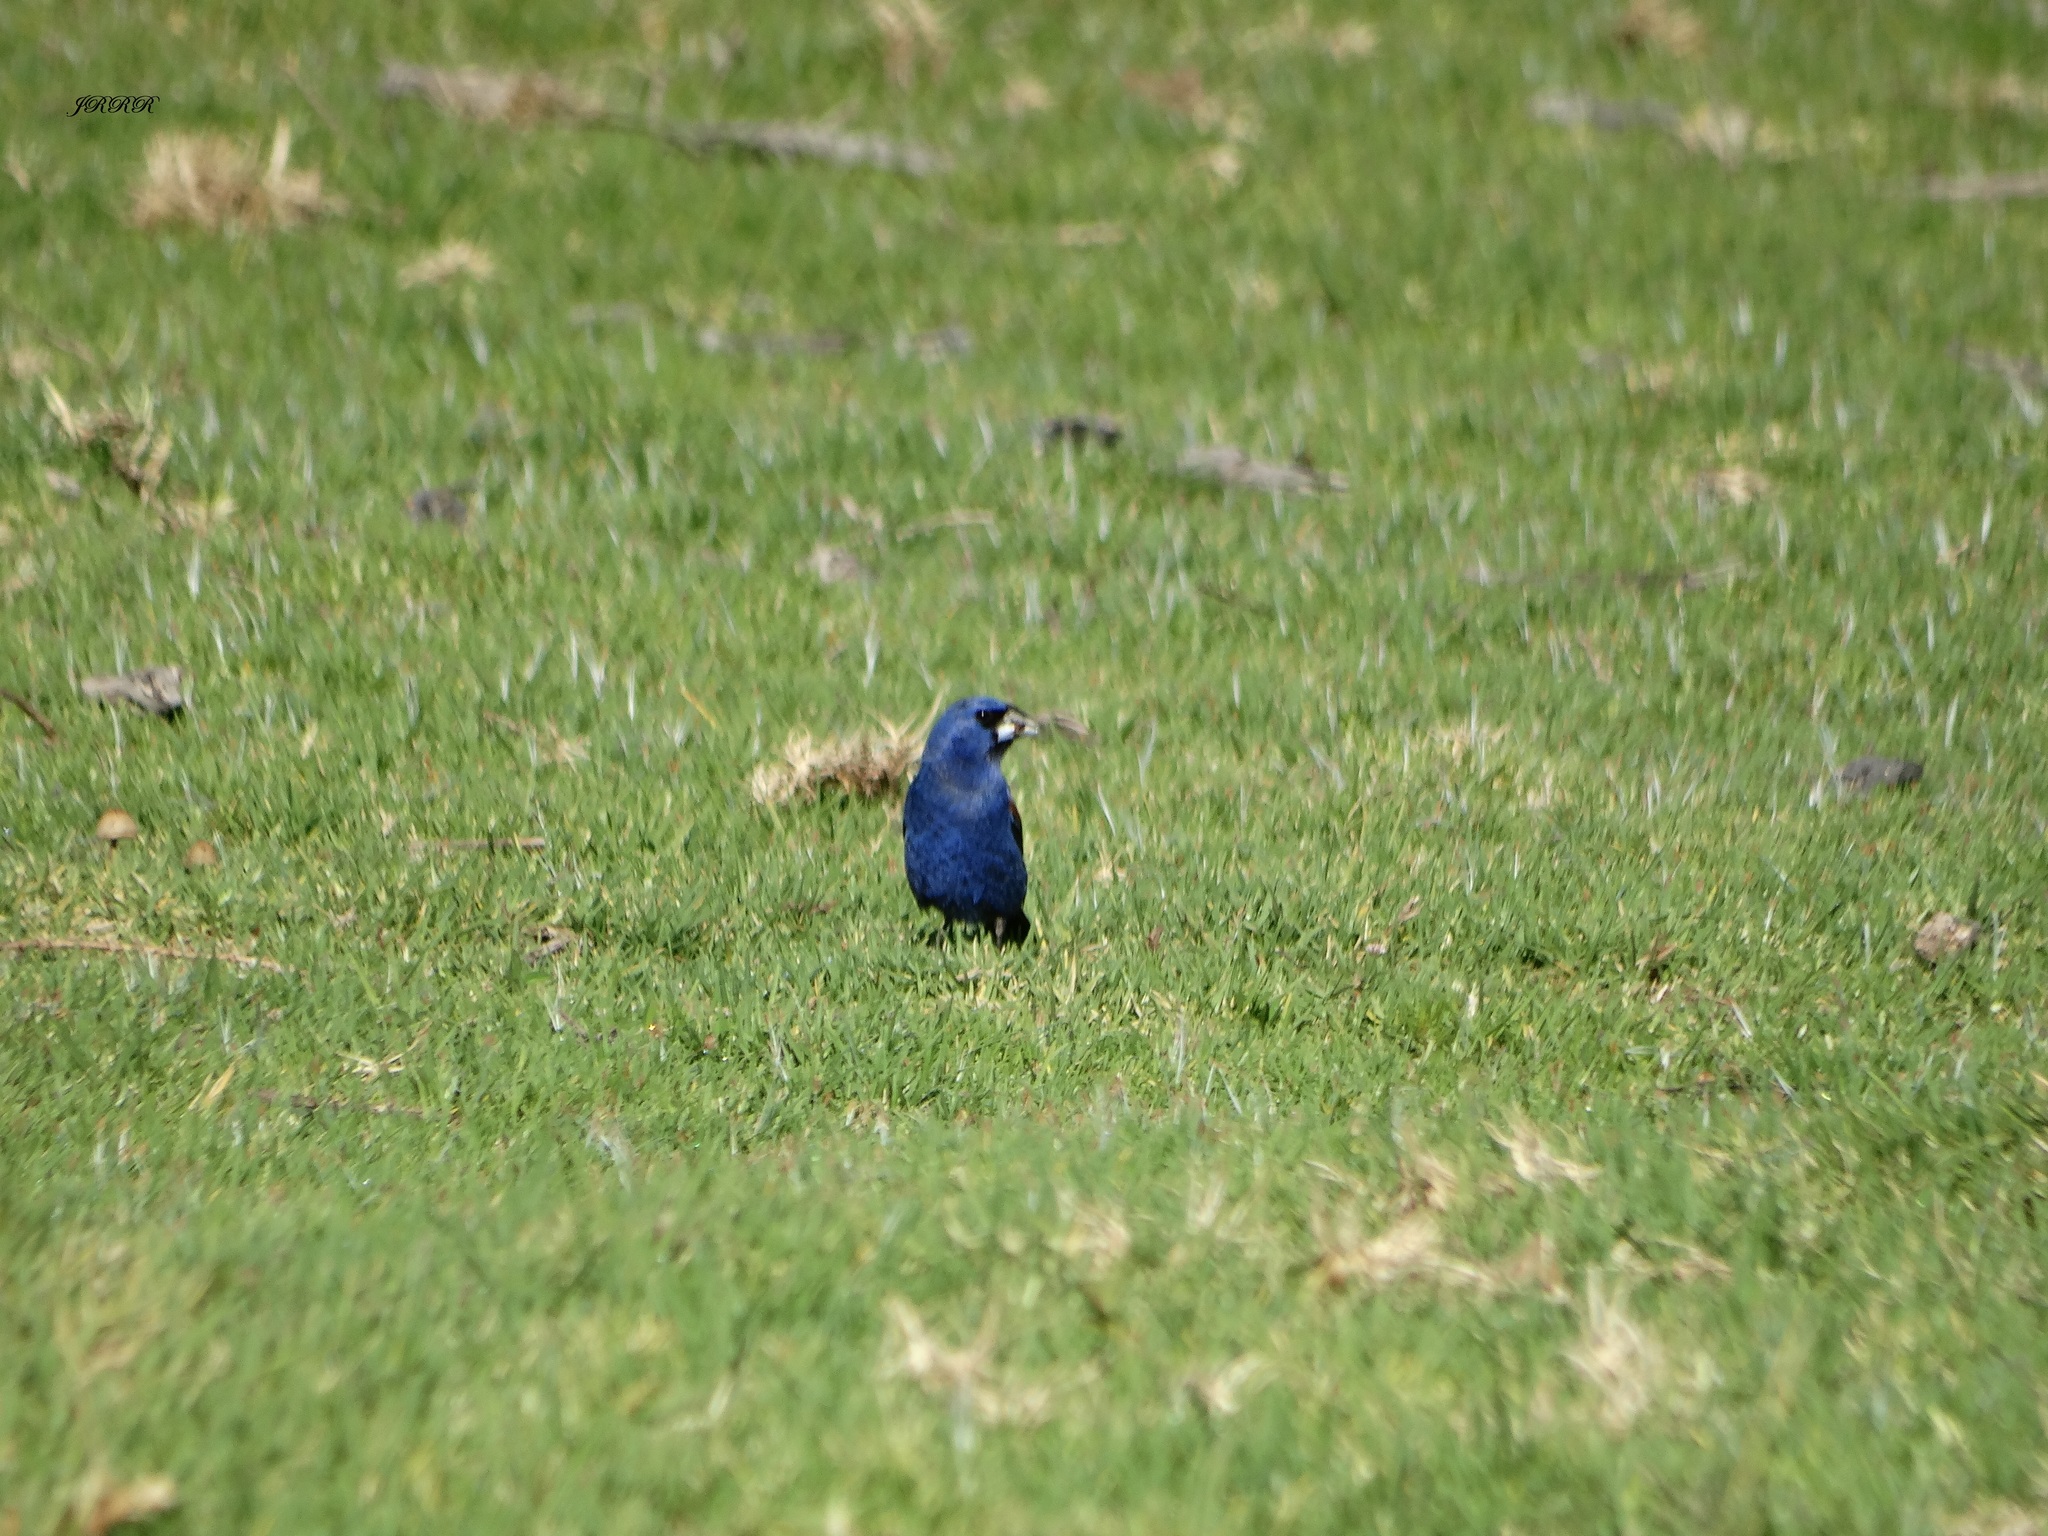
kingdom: Animalia
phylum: Chordata
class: Aves
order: Passeriformes
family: Cardinalidae
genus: Passerina
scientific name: Passerina caerulea
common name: Blue grosbeak
